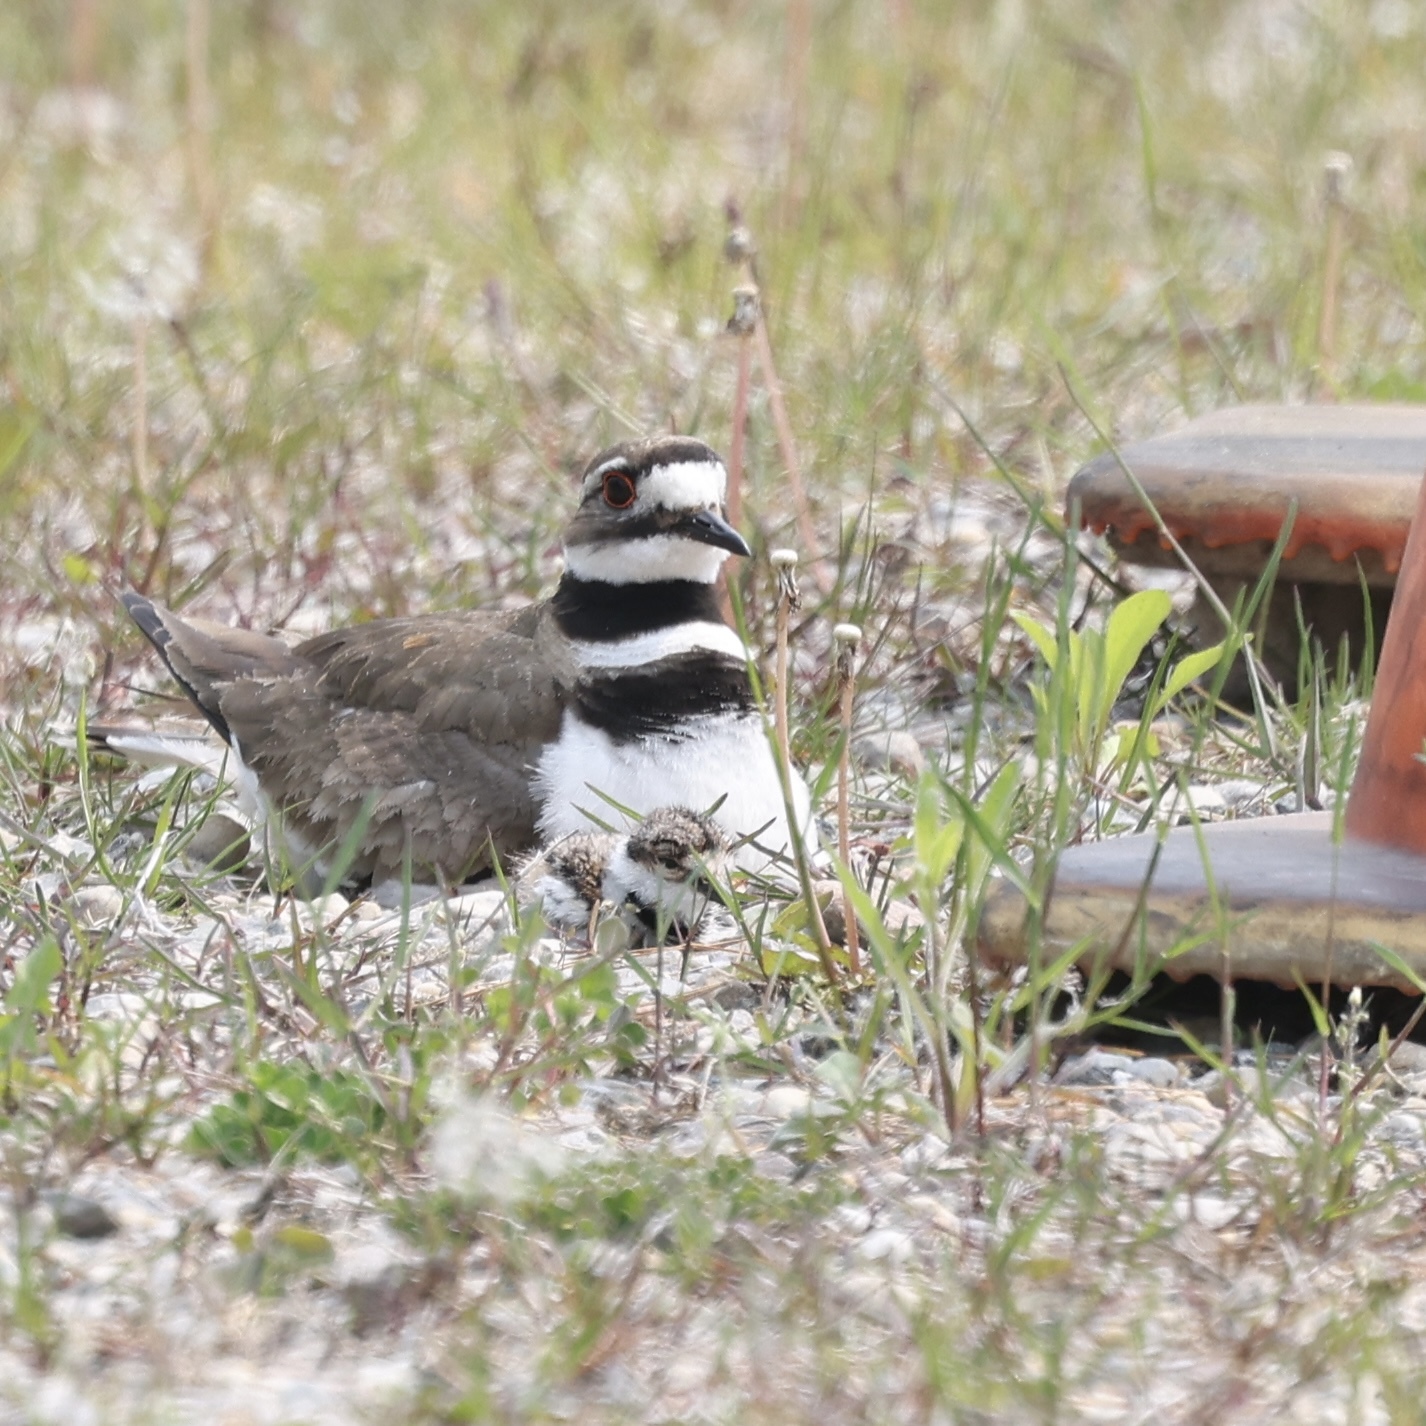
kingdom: Animalia
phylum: Chordata
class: Aves
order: Charadriiformes
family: Charadriidae
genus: Charadrius
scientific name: Charadrius vociferus
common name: Killdeer
